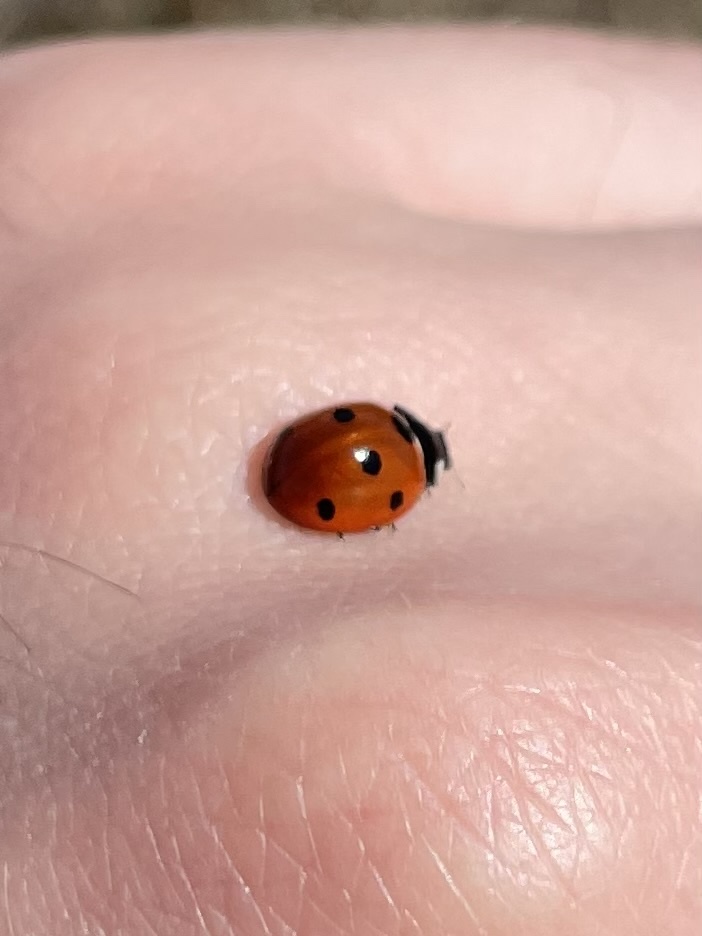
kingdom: Animalia
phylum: Arthropoda
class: Insecta
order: Coleoptera
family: Coccinellidae
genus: Coccinella
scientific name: Coccinella septempunctata
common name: Sevenspotted lady beetle
